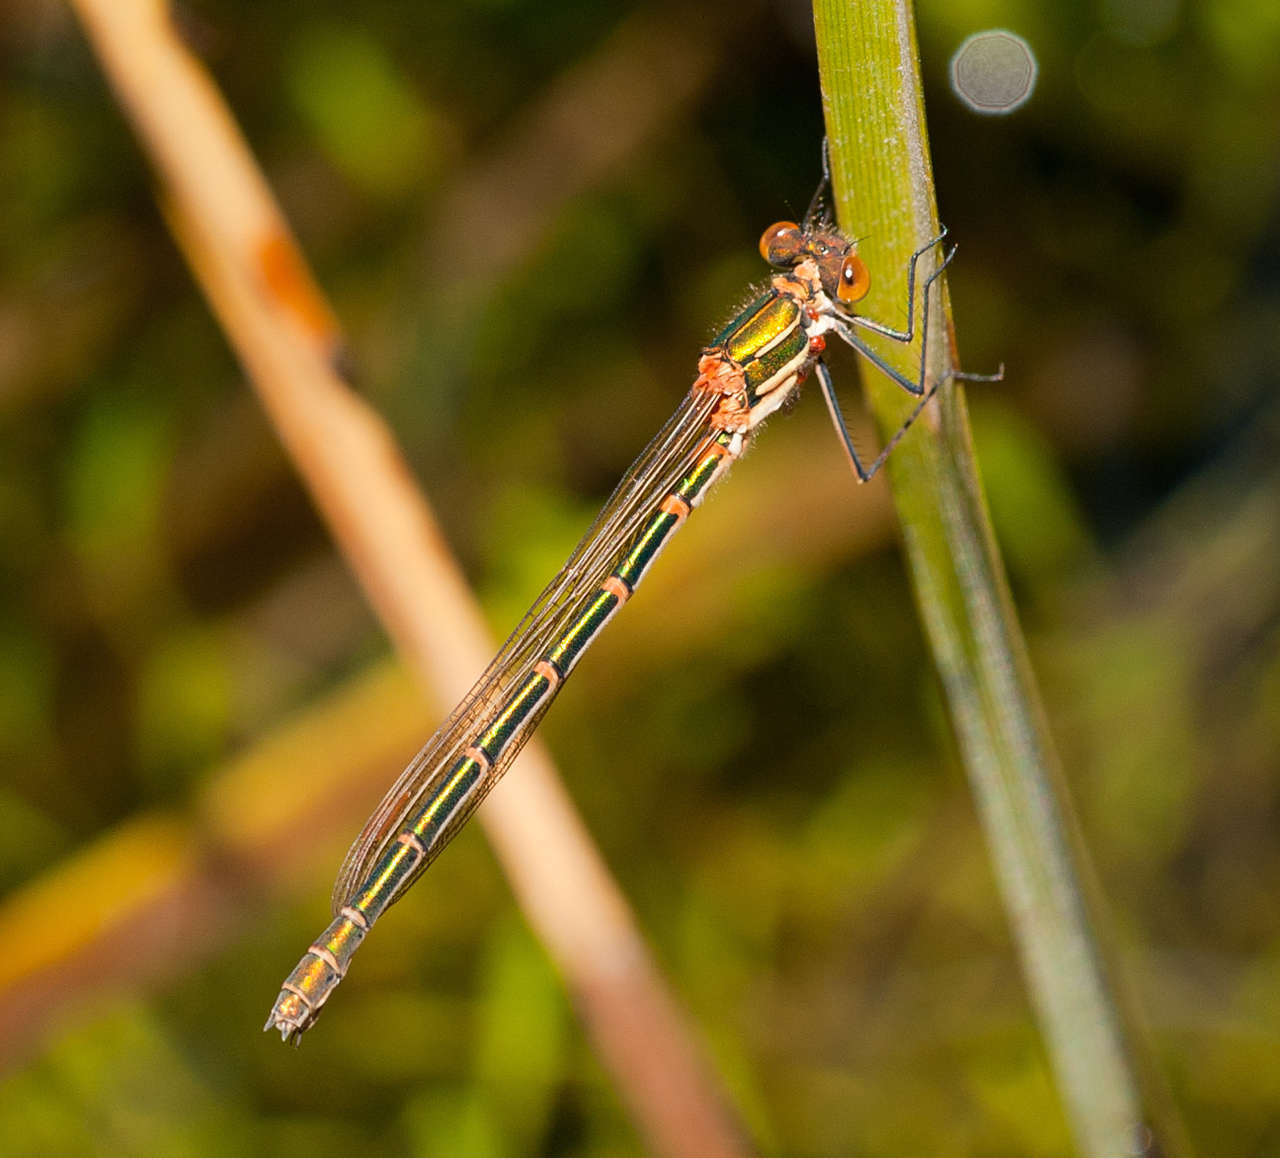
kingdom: Animalia
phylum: Arthropoda
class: Insecta
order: Odonata
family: Lestidae
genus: Austrolestes
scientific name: Austrolestes cingulatus
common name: Metallic ringtail
